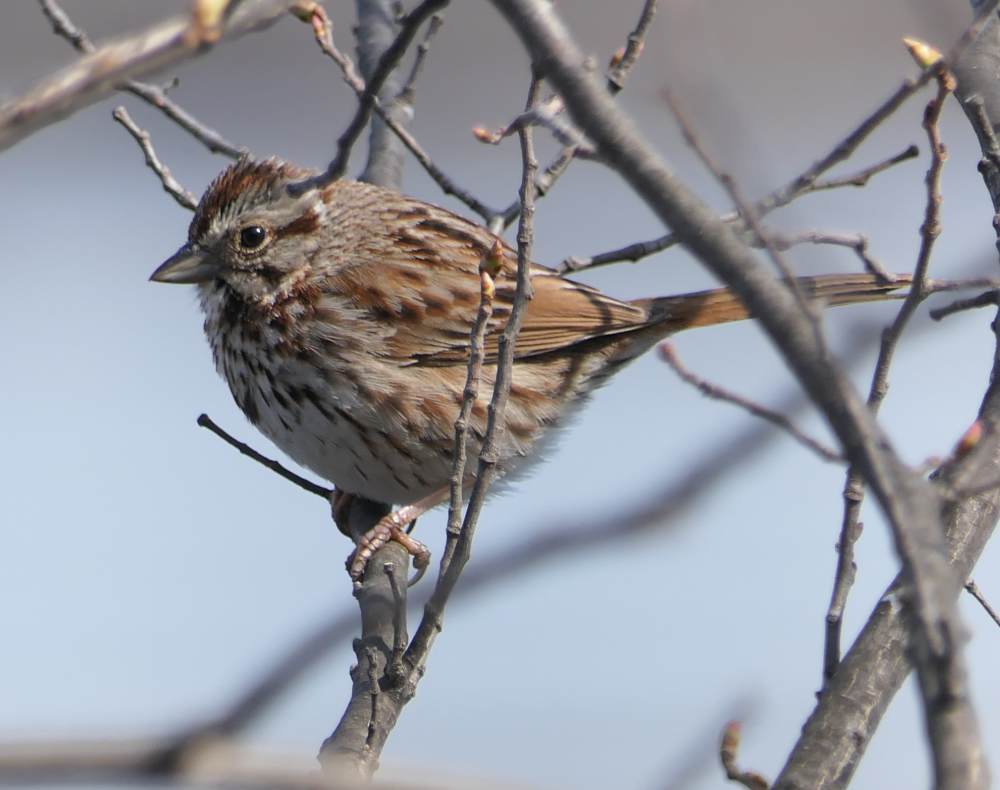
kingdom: Animalia
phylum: Chordata
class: Aves
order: Passeriformes
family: Passerellidae
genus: Melospiza
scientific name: Melospiza melodia
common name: Song sparrow
